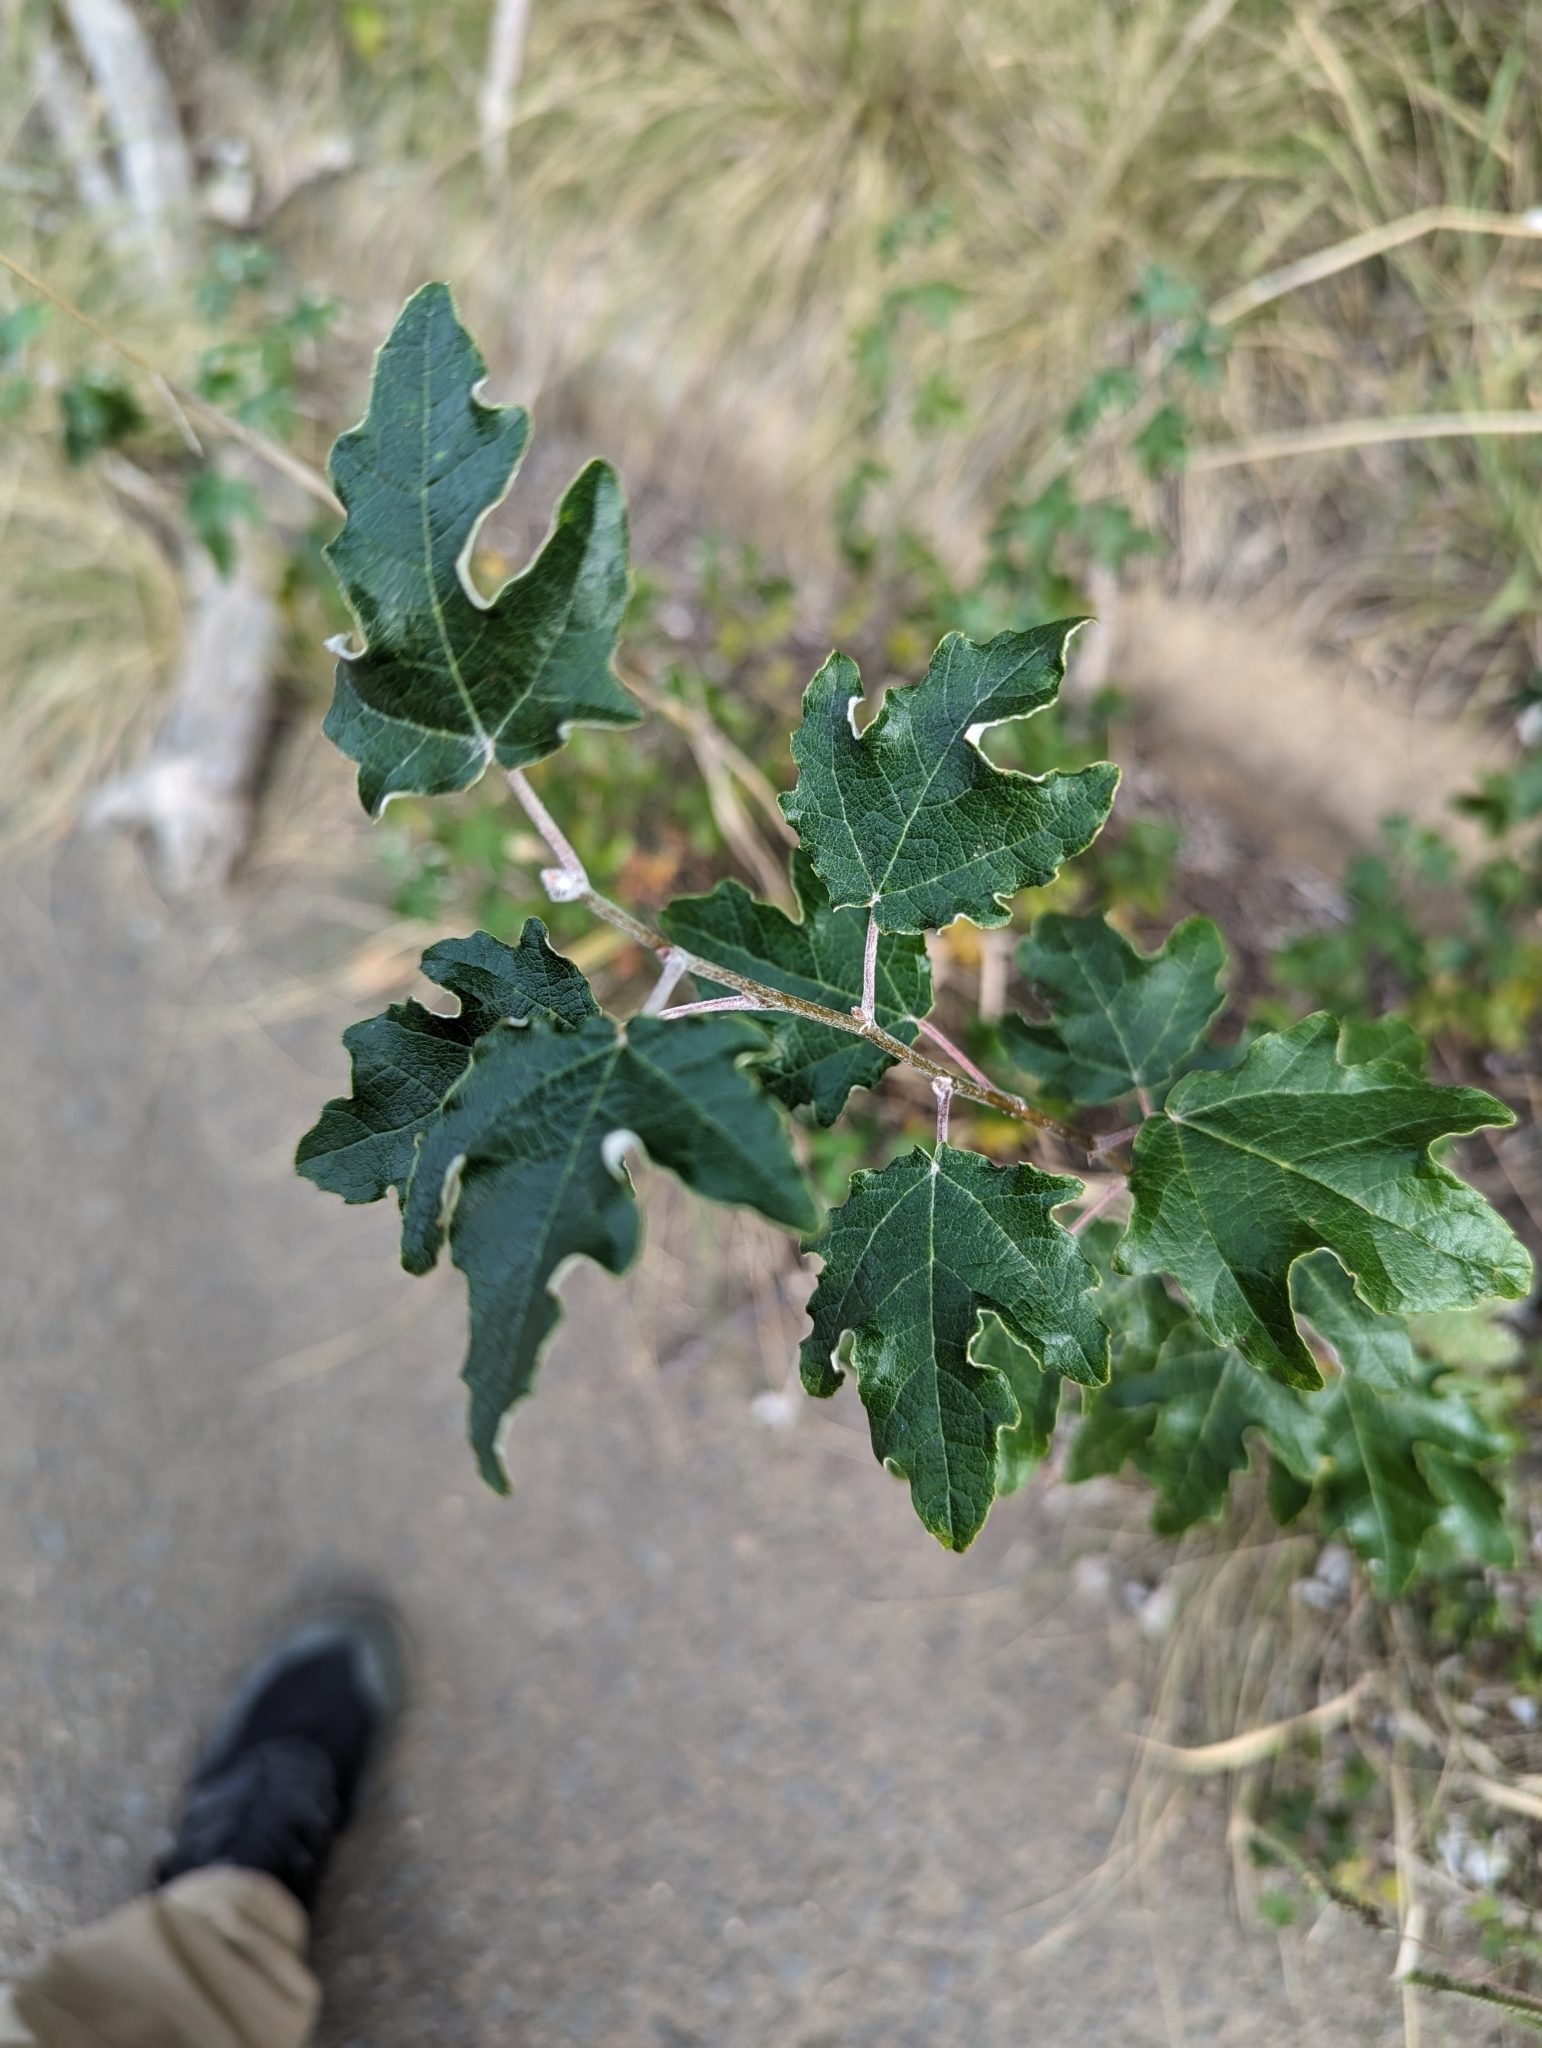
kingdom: Plantae
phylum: Tracheophyta
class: Magnoliopsida
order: Malpighiales
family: Salicaceae
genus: Populus
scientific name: Populus alba
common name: White poplar
